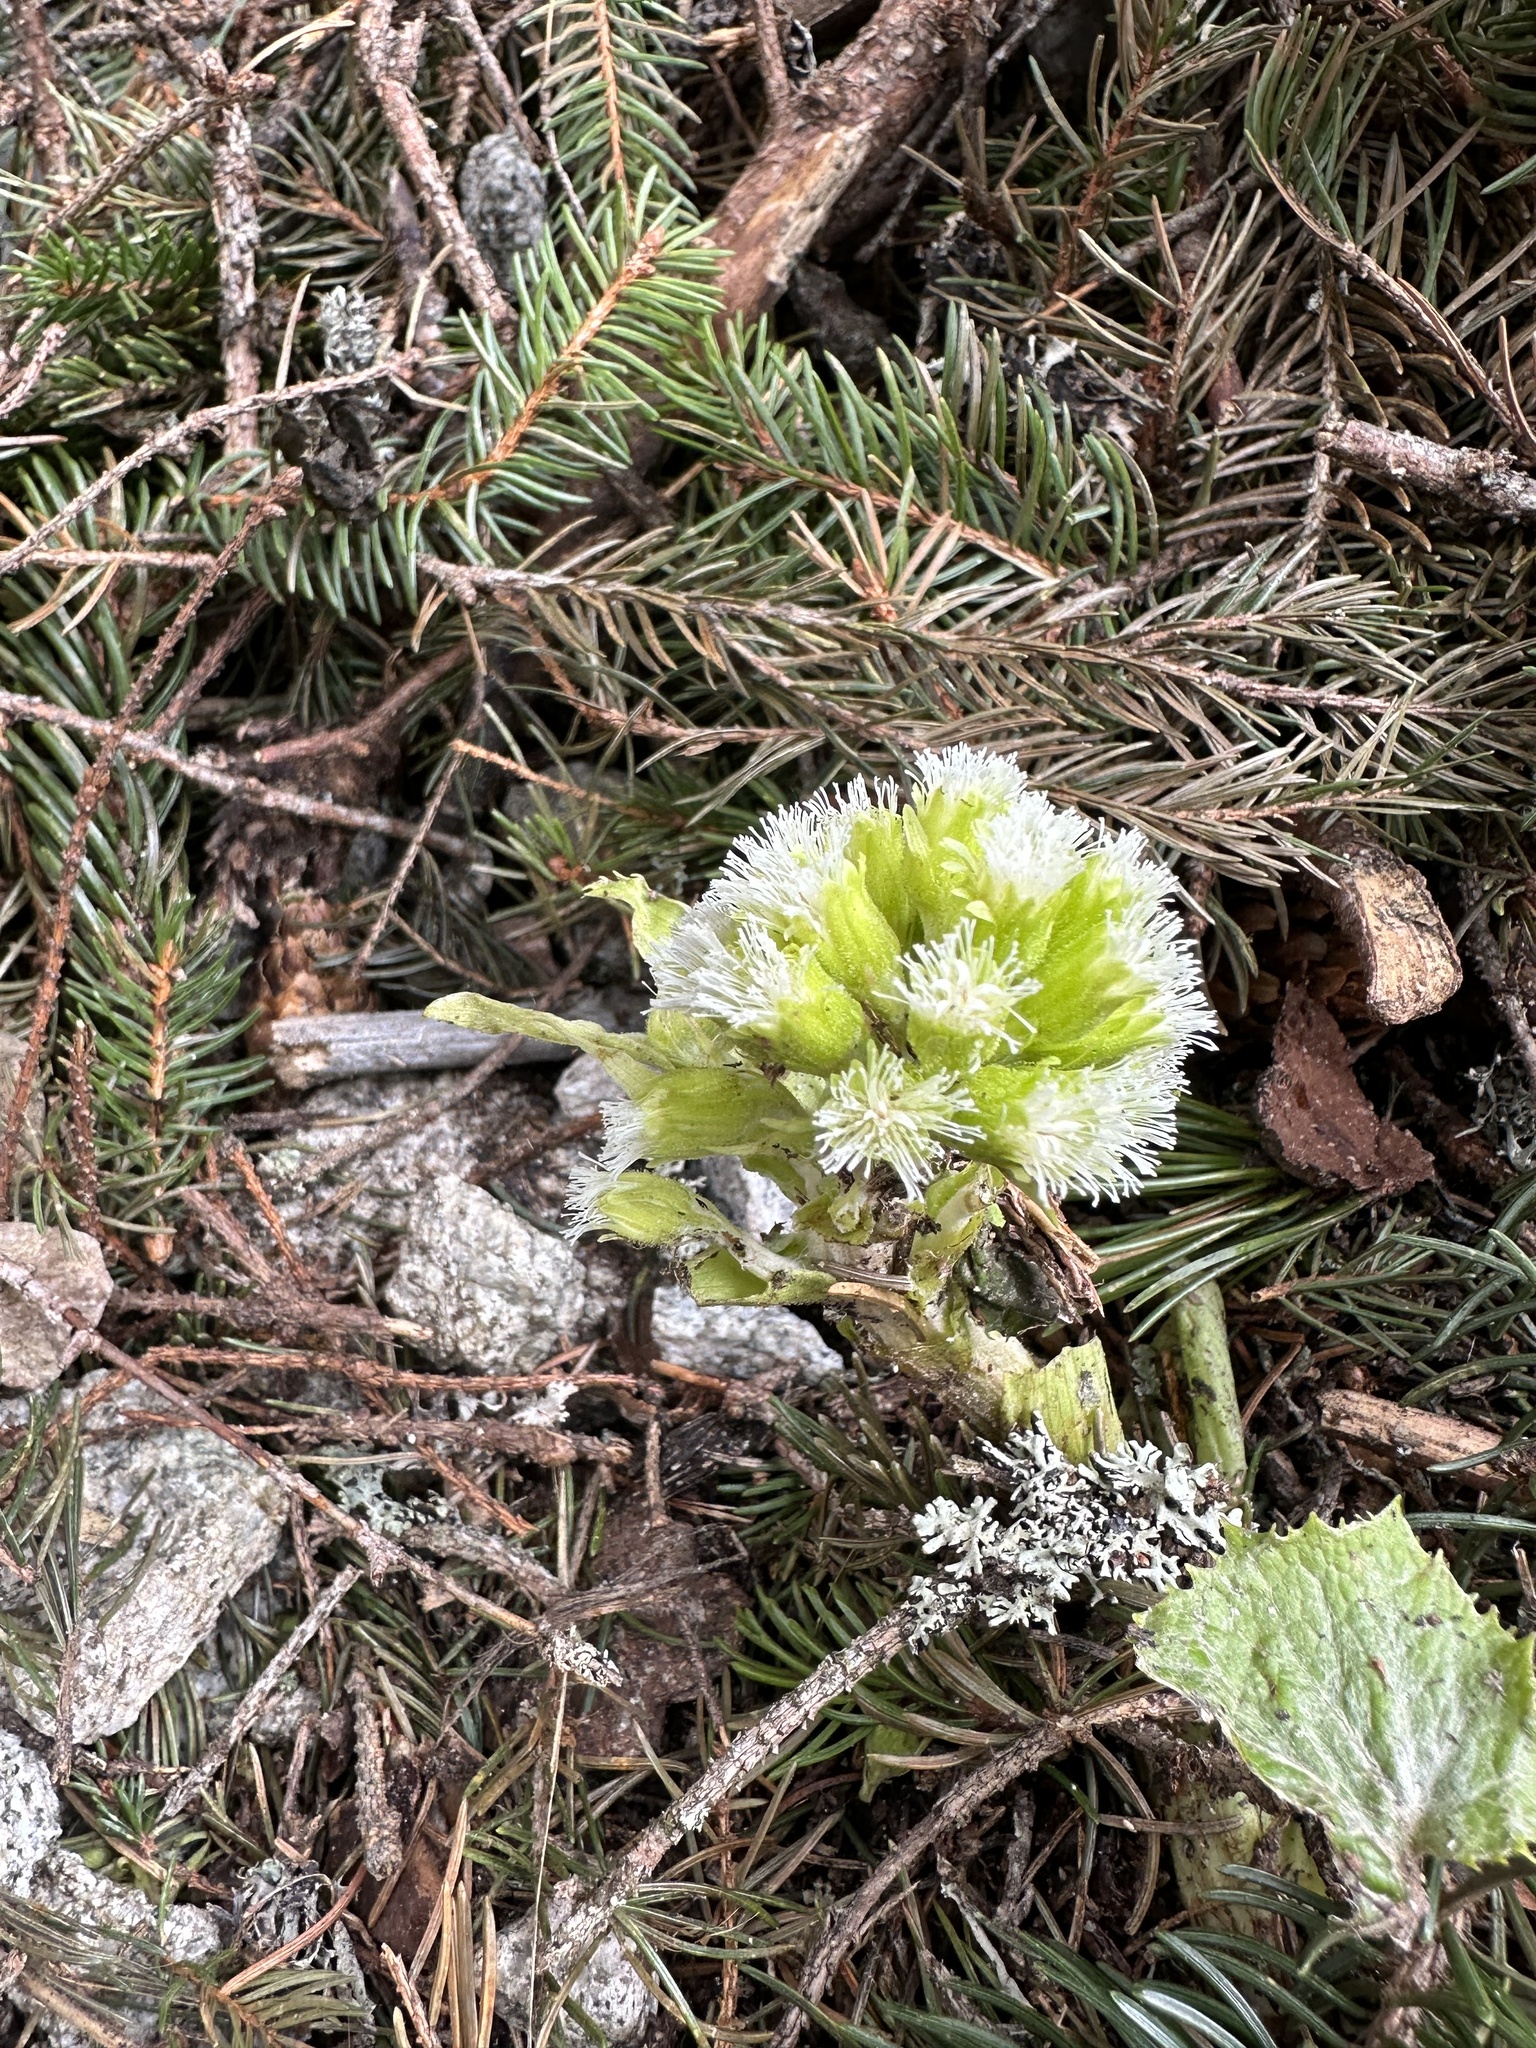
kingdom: Plantae
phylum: Tracheophyta
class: Magnoliopsida
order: Asterales
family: Asteraceae
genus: Petasites
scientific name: Petasites albus
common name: White butterbur
